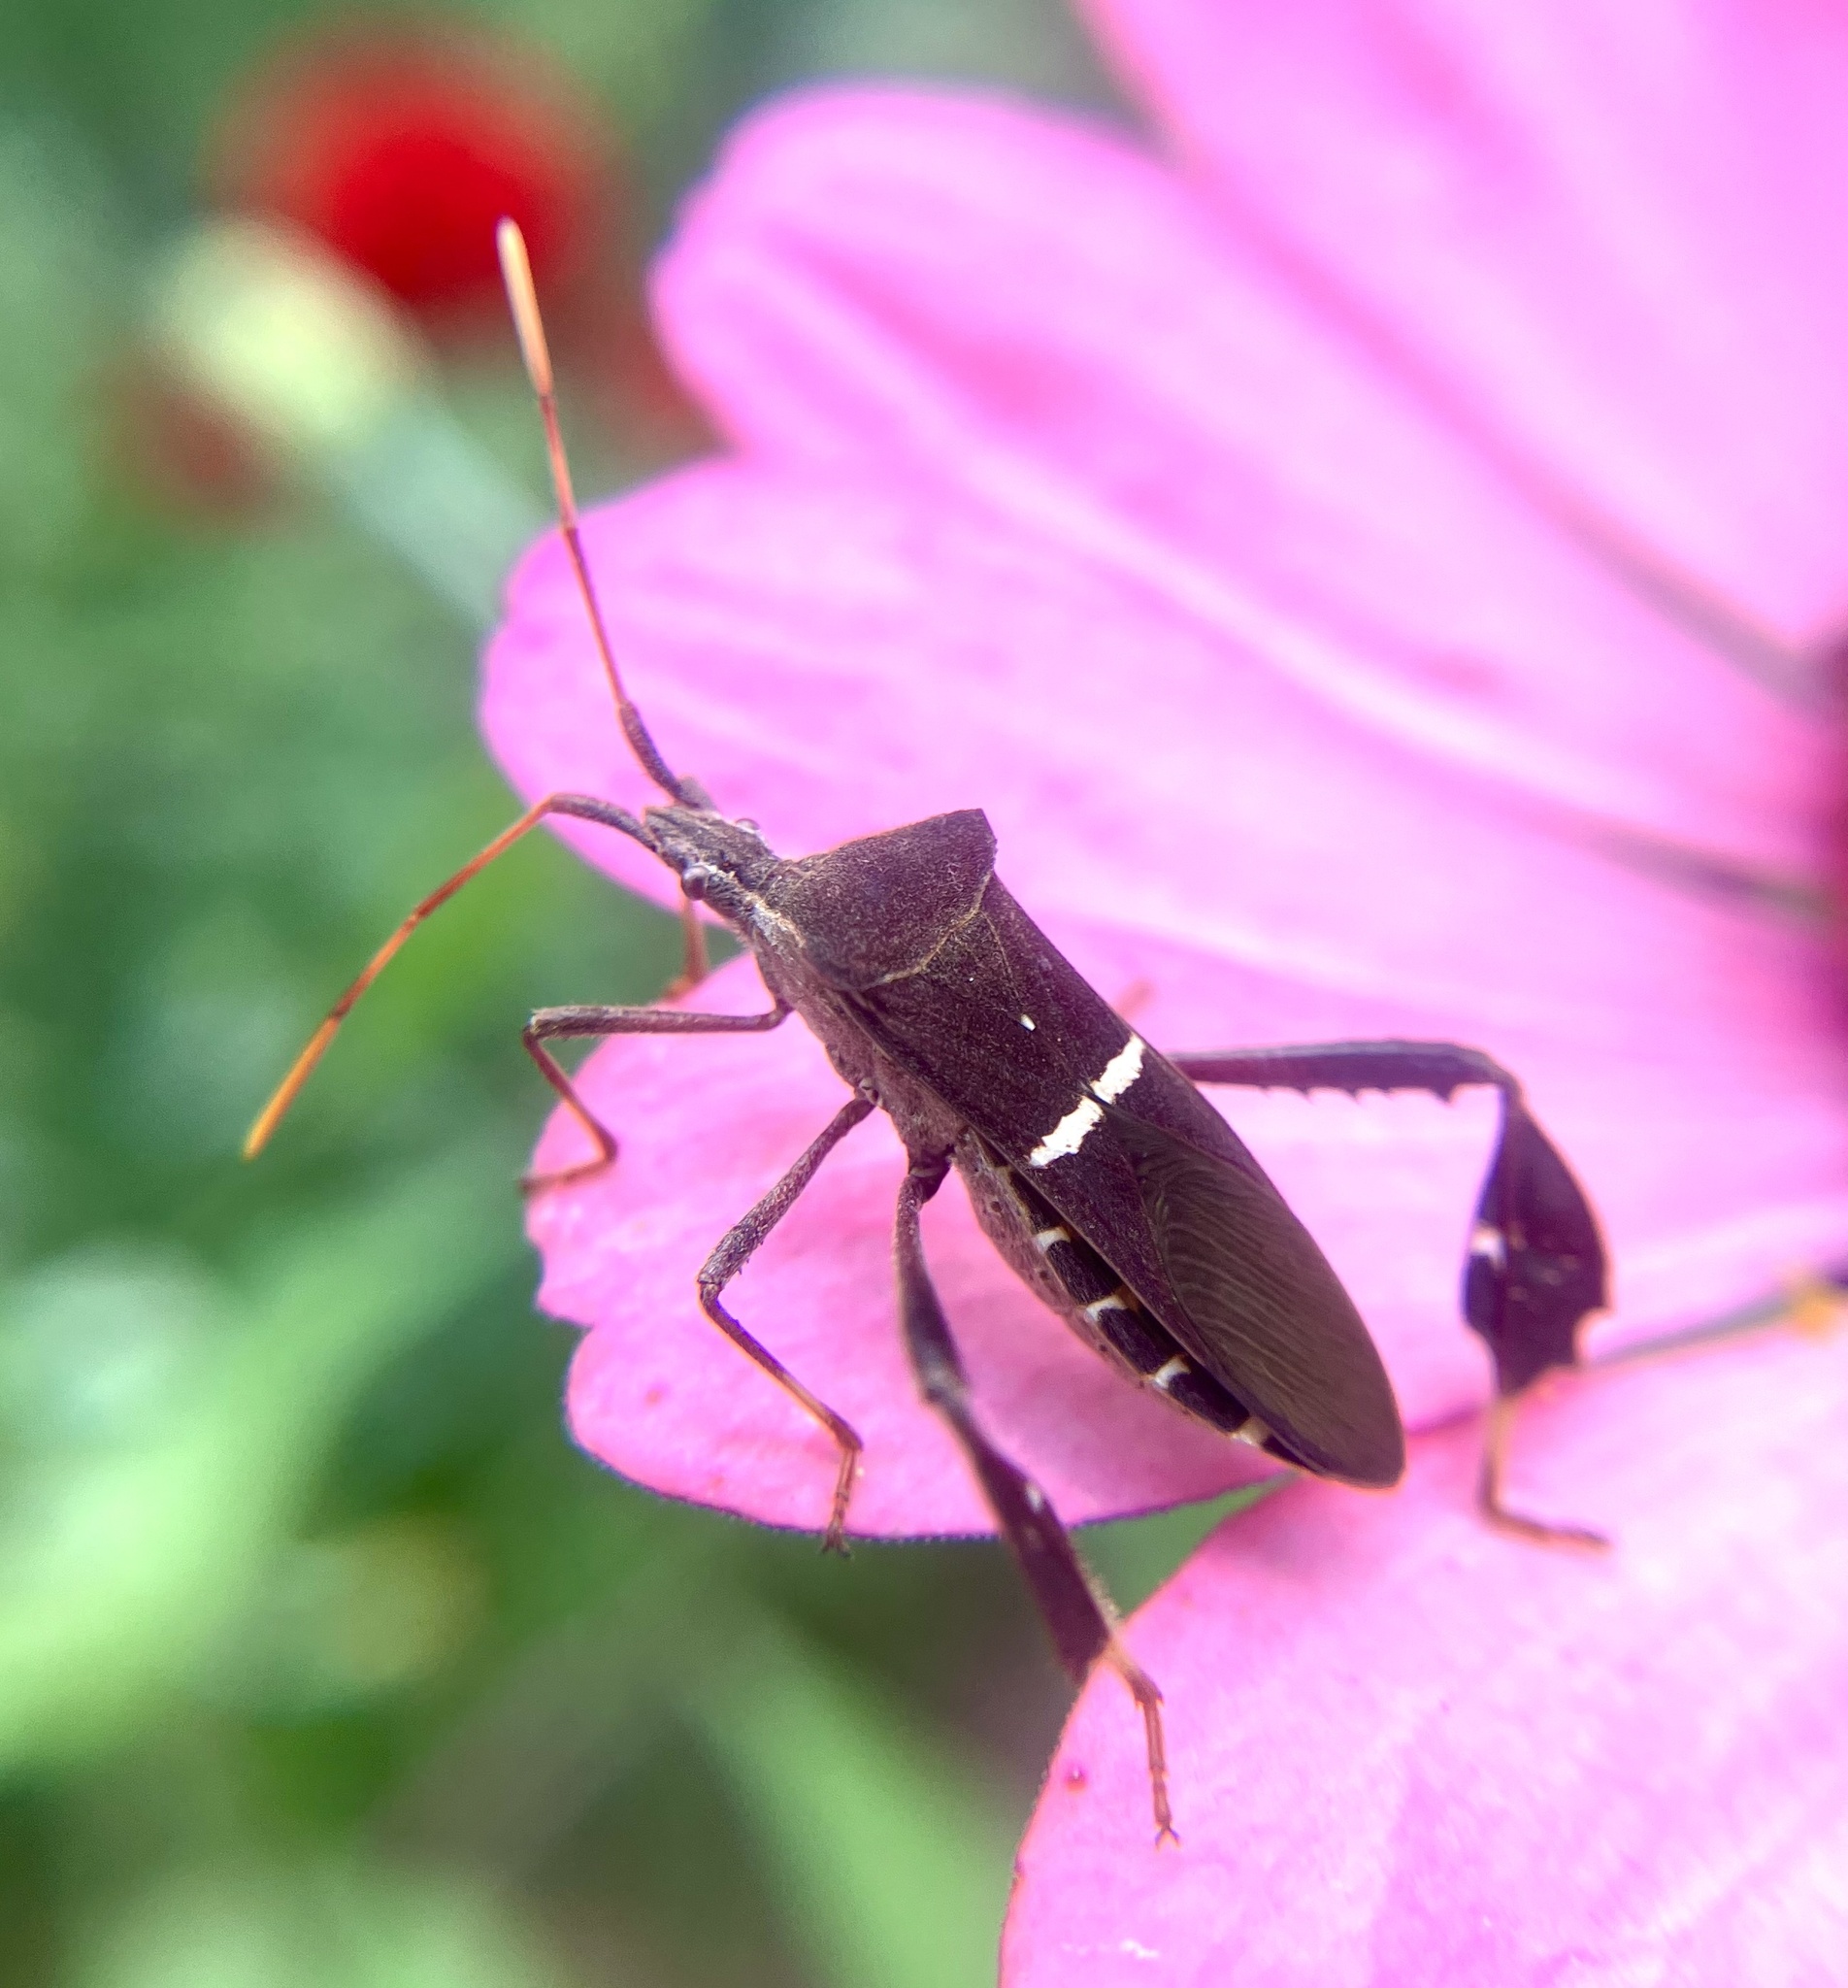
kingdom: Animalia
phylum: Arthropoda
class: Insecta
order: Hemiptera
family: Coreidae
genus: Leptoglossus
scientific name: Leptoglossus phyllopus
